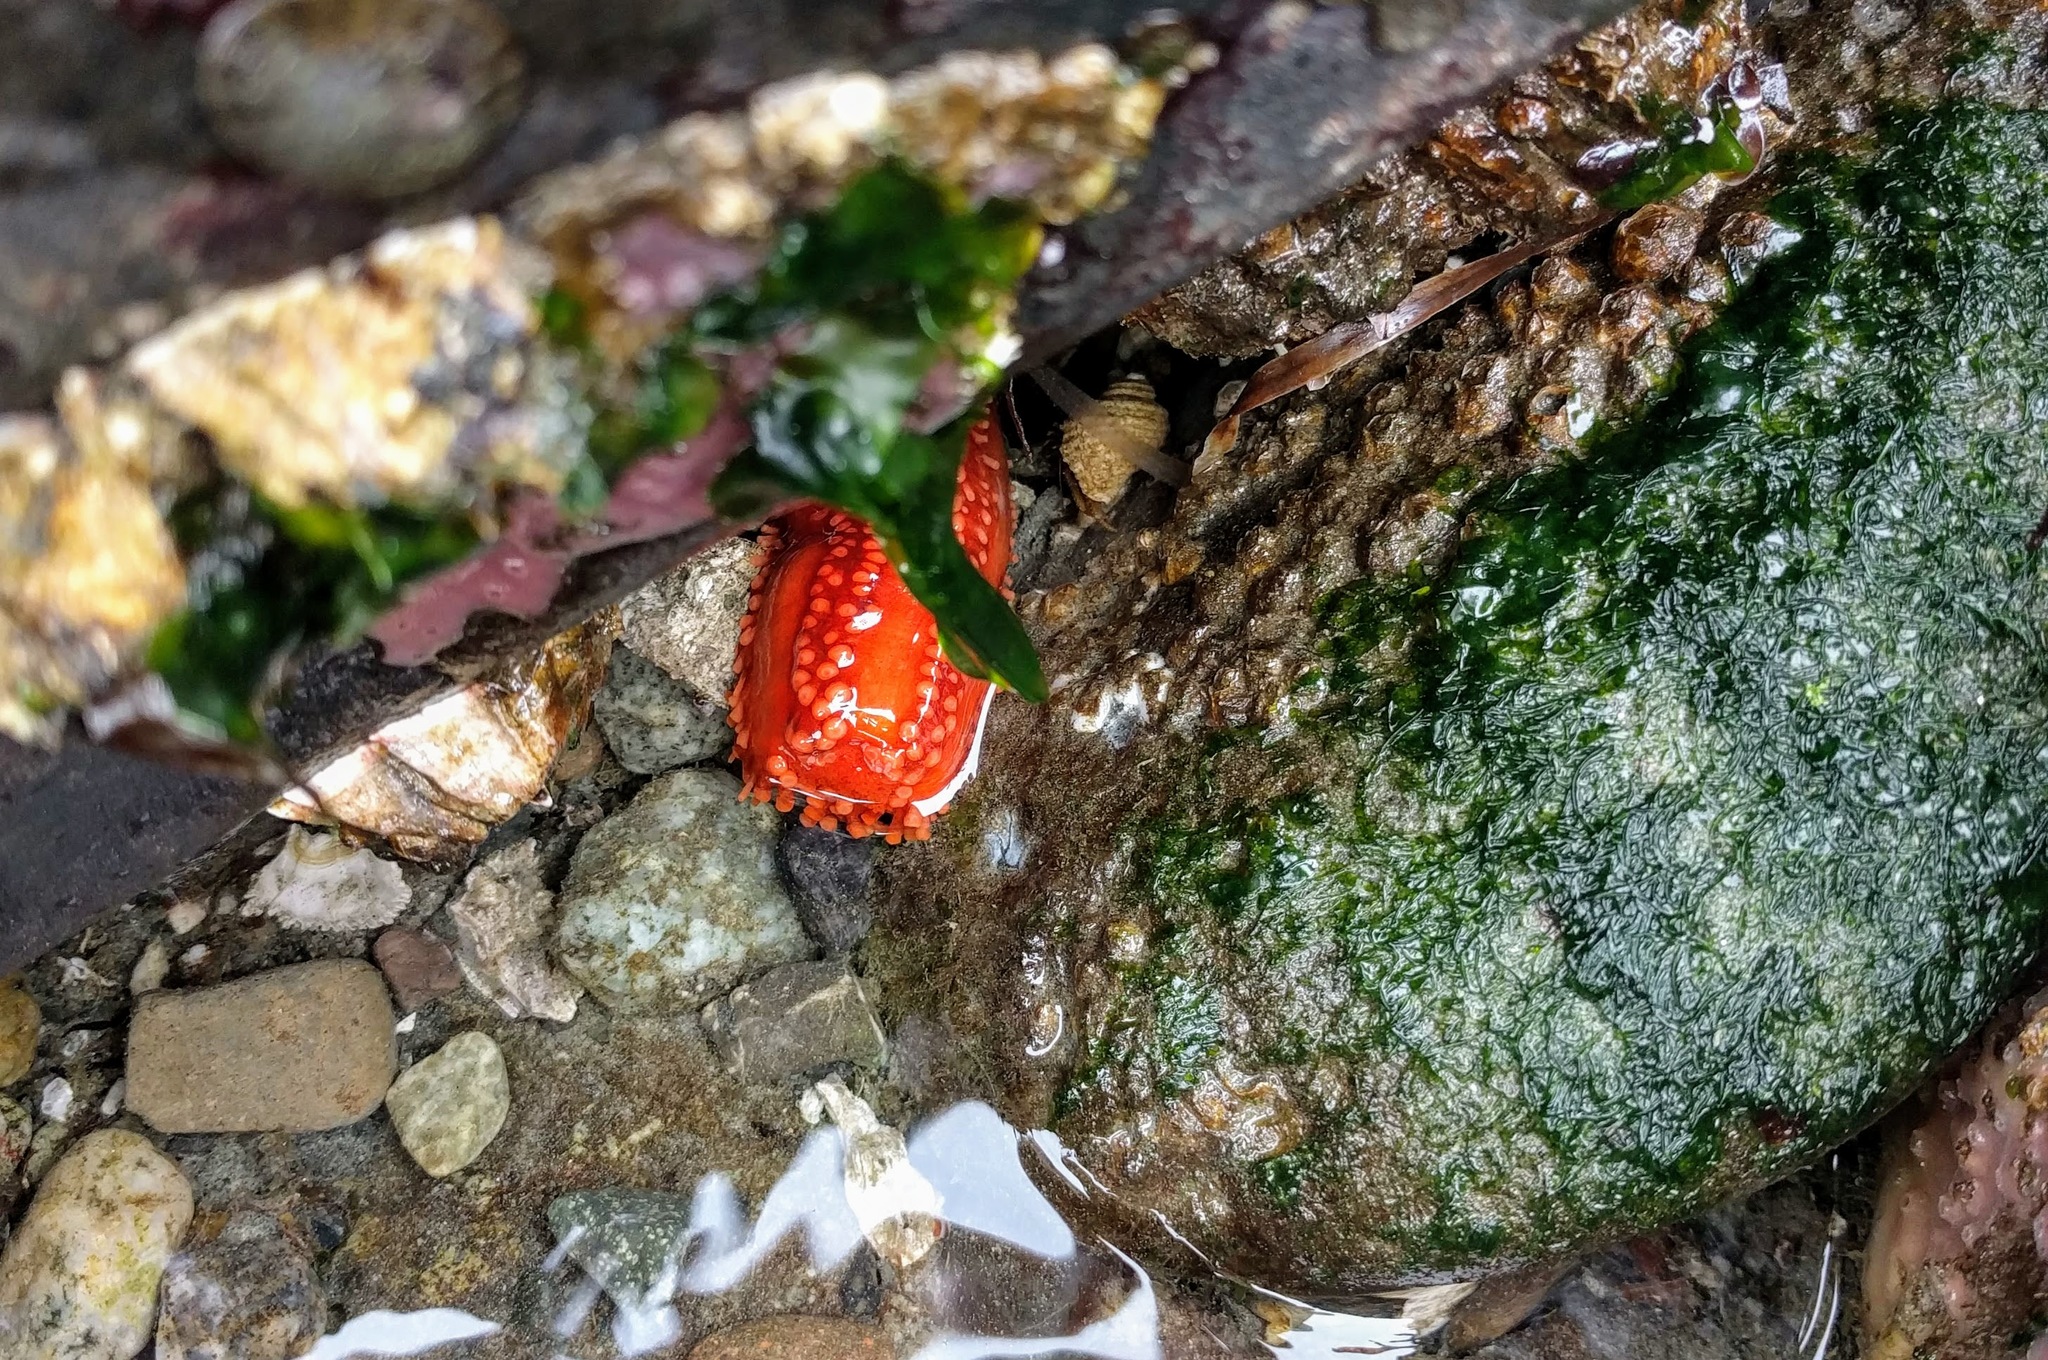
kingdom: Animalia
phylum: Echinodermata
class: Holothuroidea
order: Dendrochirotida
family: Cucumariidae
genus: Cucumaria
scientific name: Cucumaria miniata
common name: Orange sea cucumber
